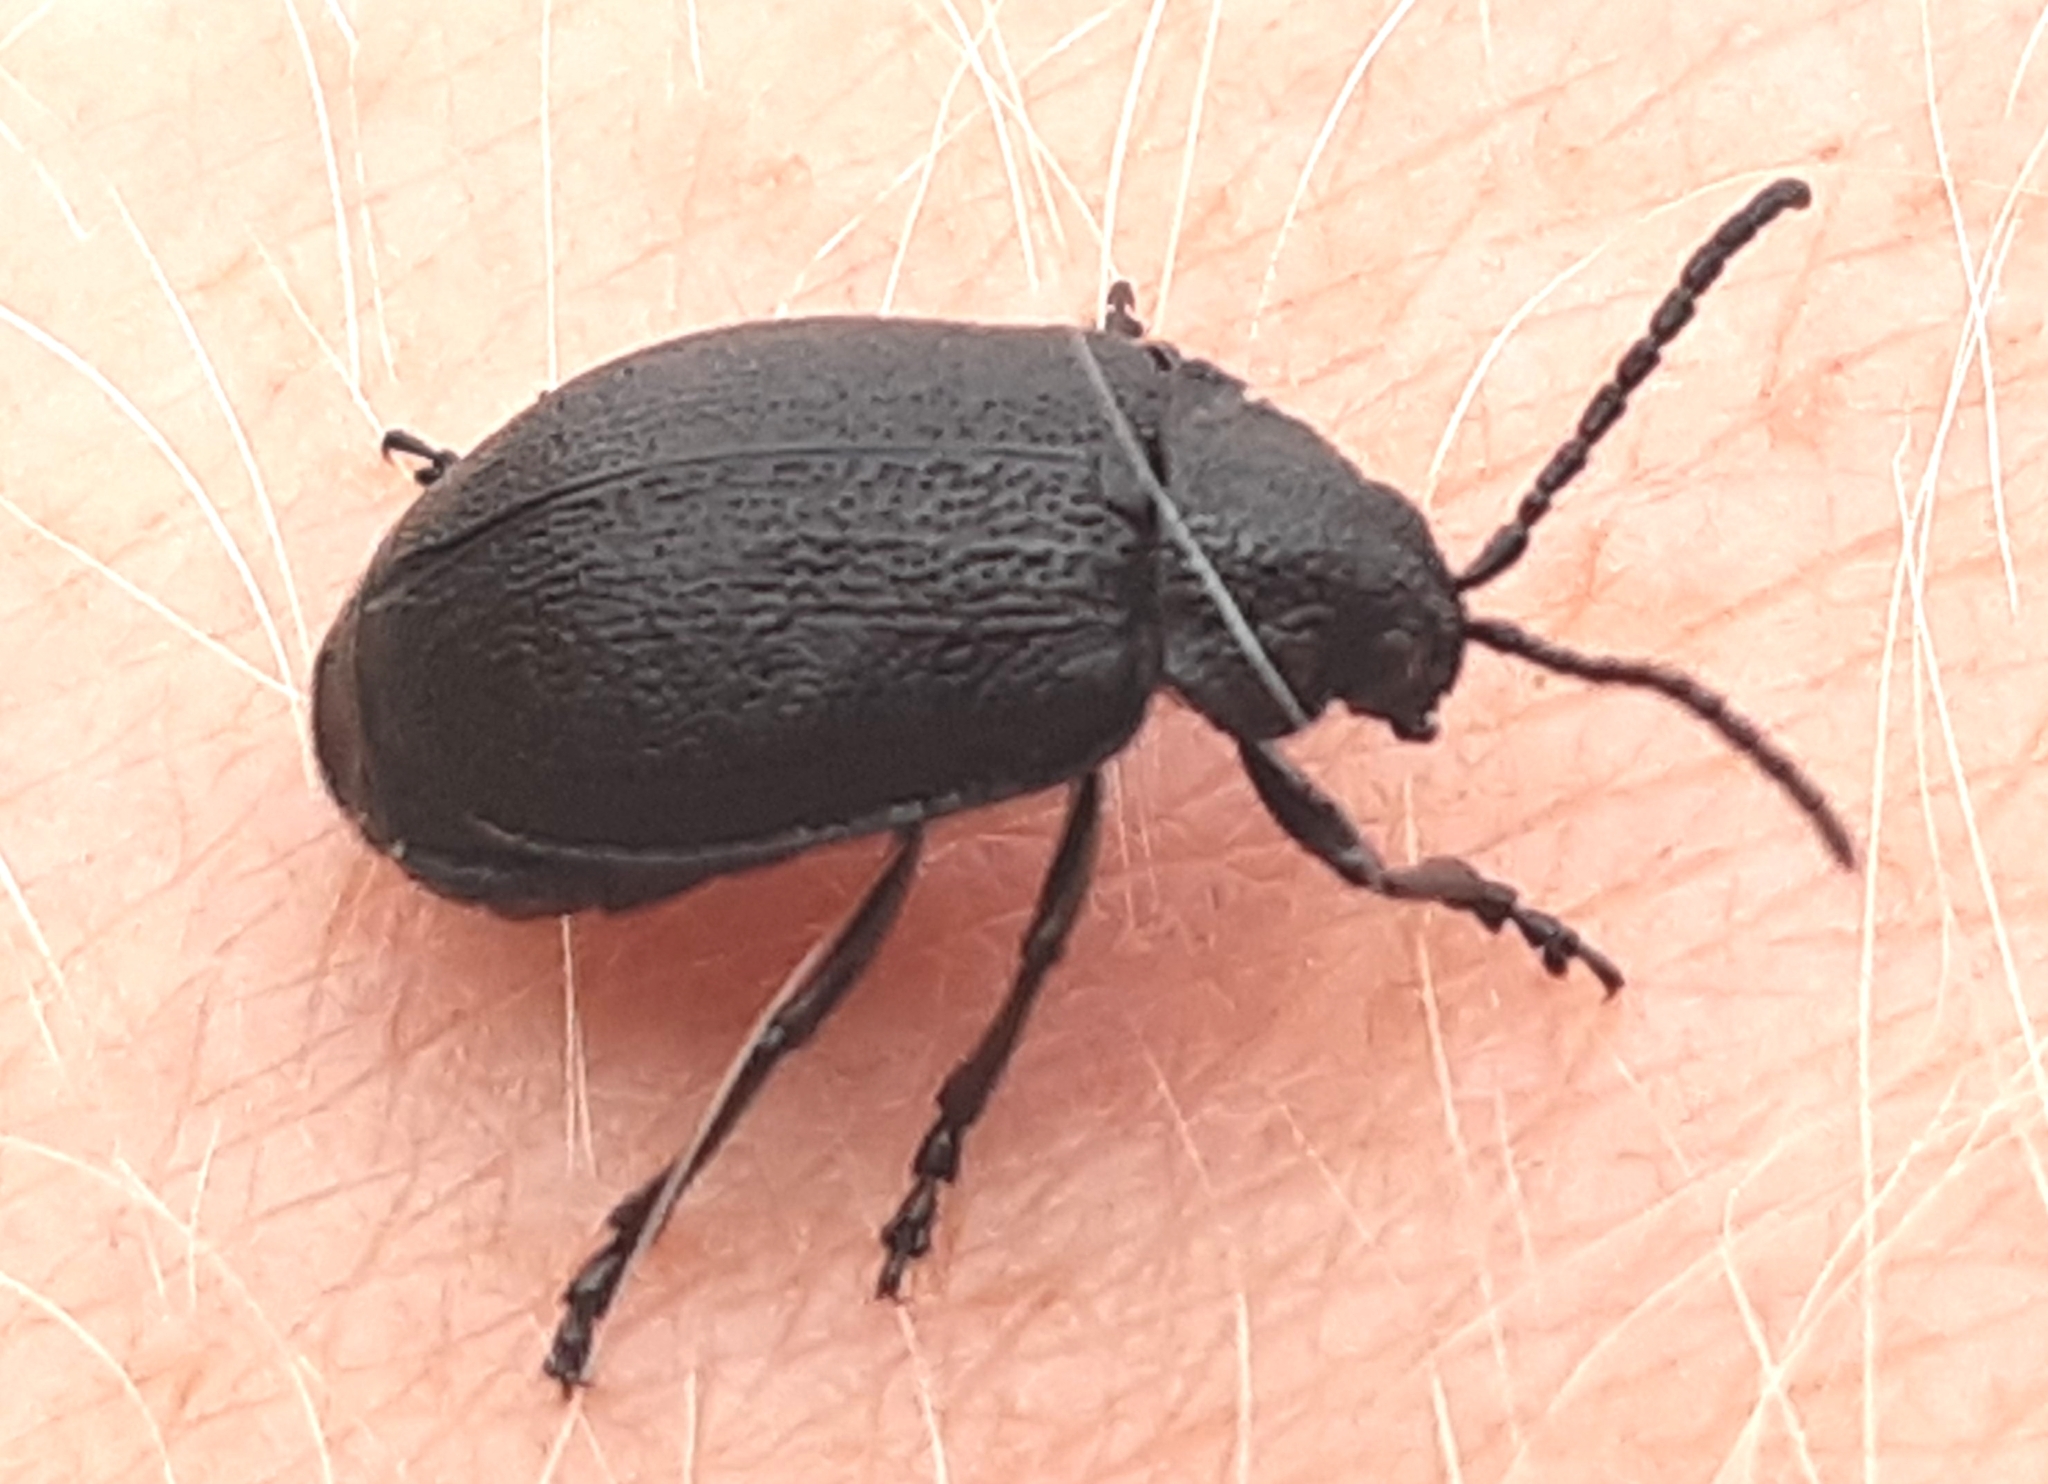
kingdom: Animalia
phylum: Arthropoda
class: Insecta
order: Coleoptera
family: Chrysomelidae
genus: Galeruca
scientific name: Galeruca tanaceti
